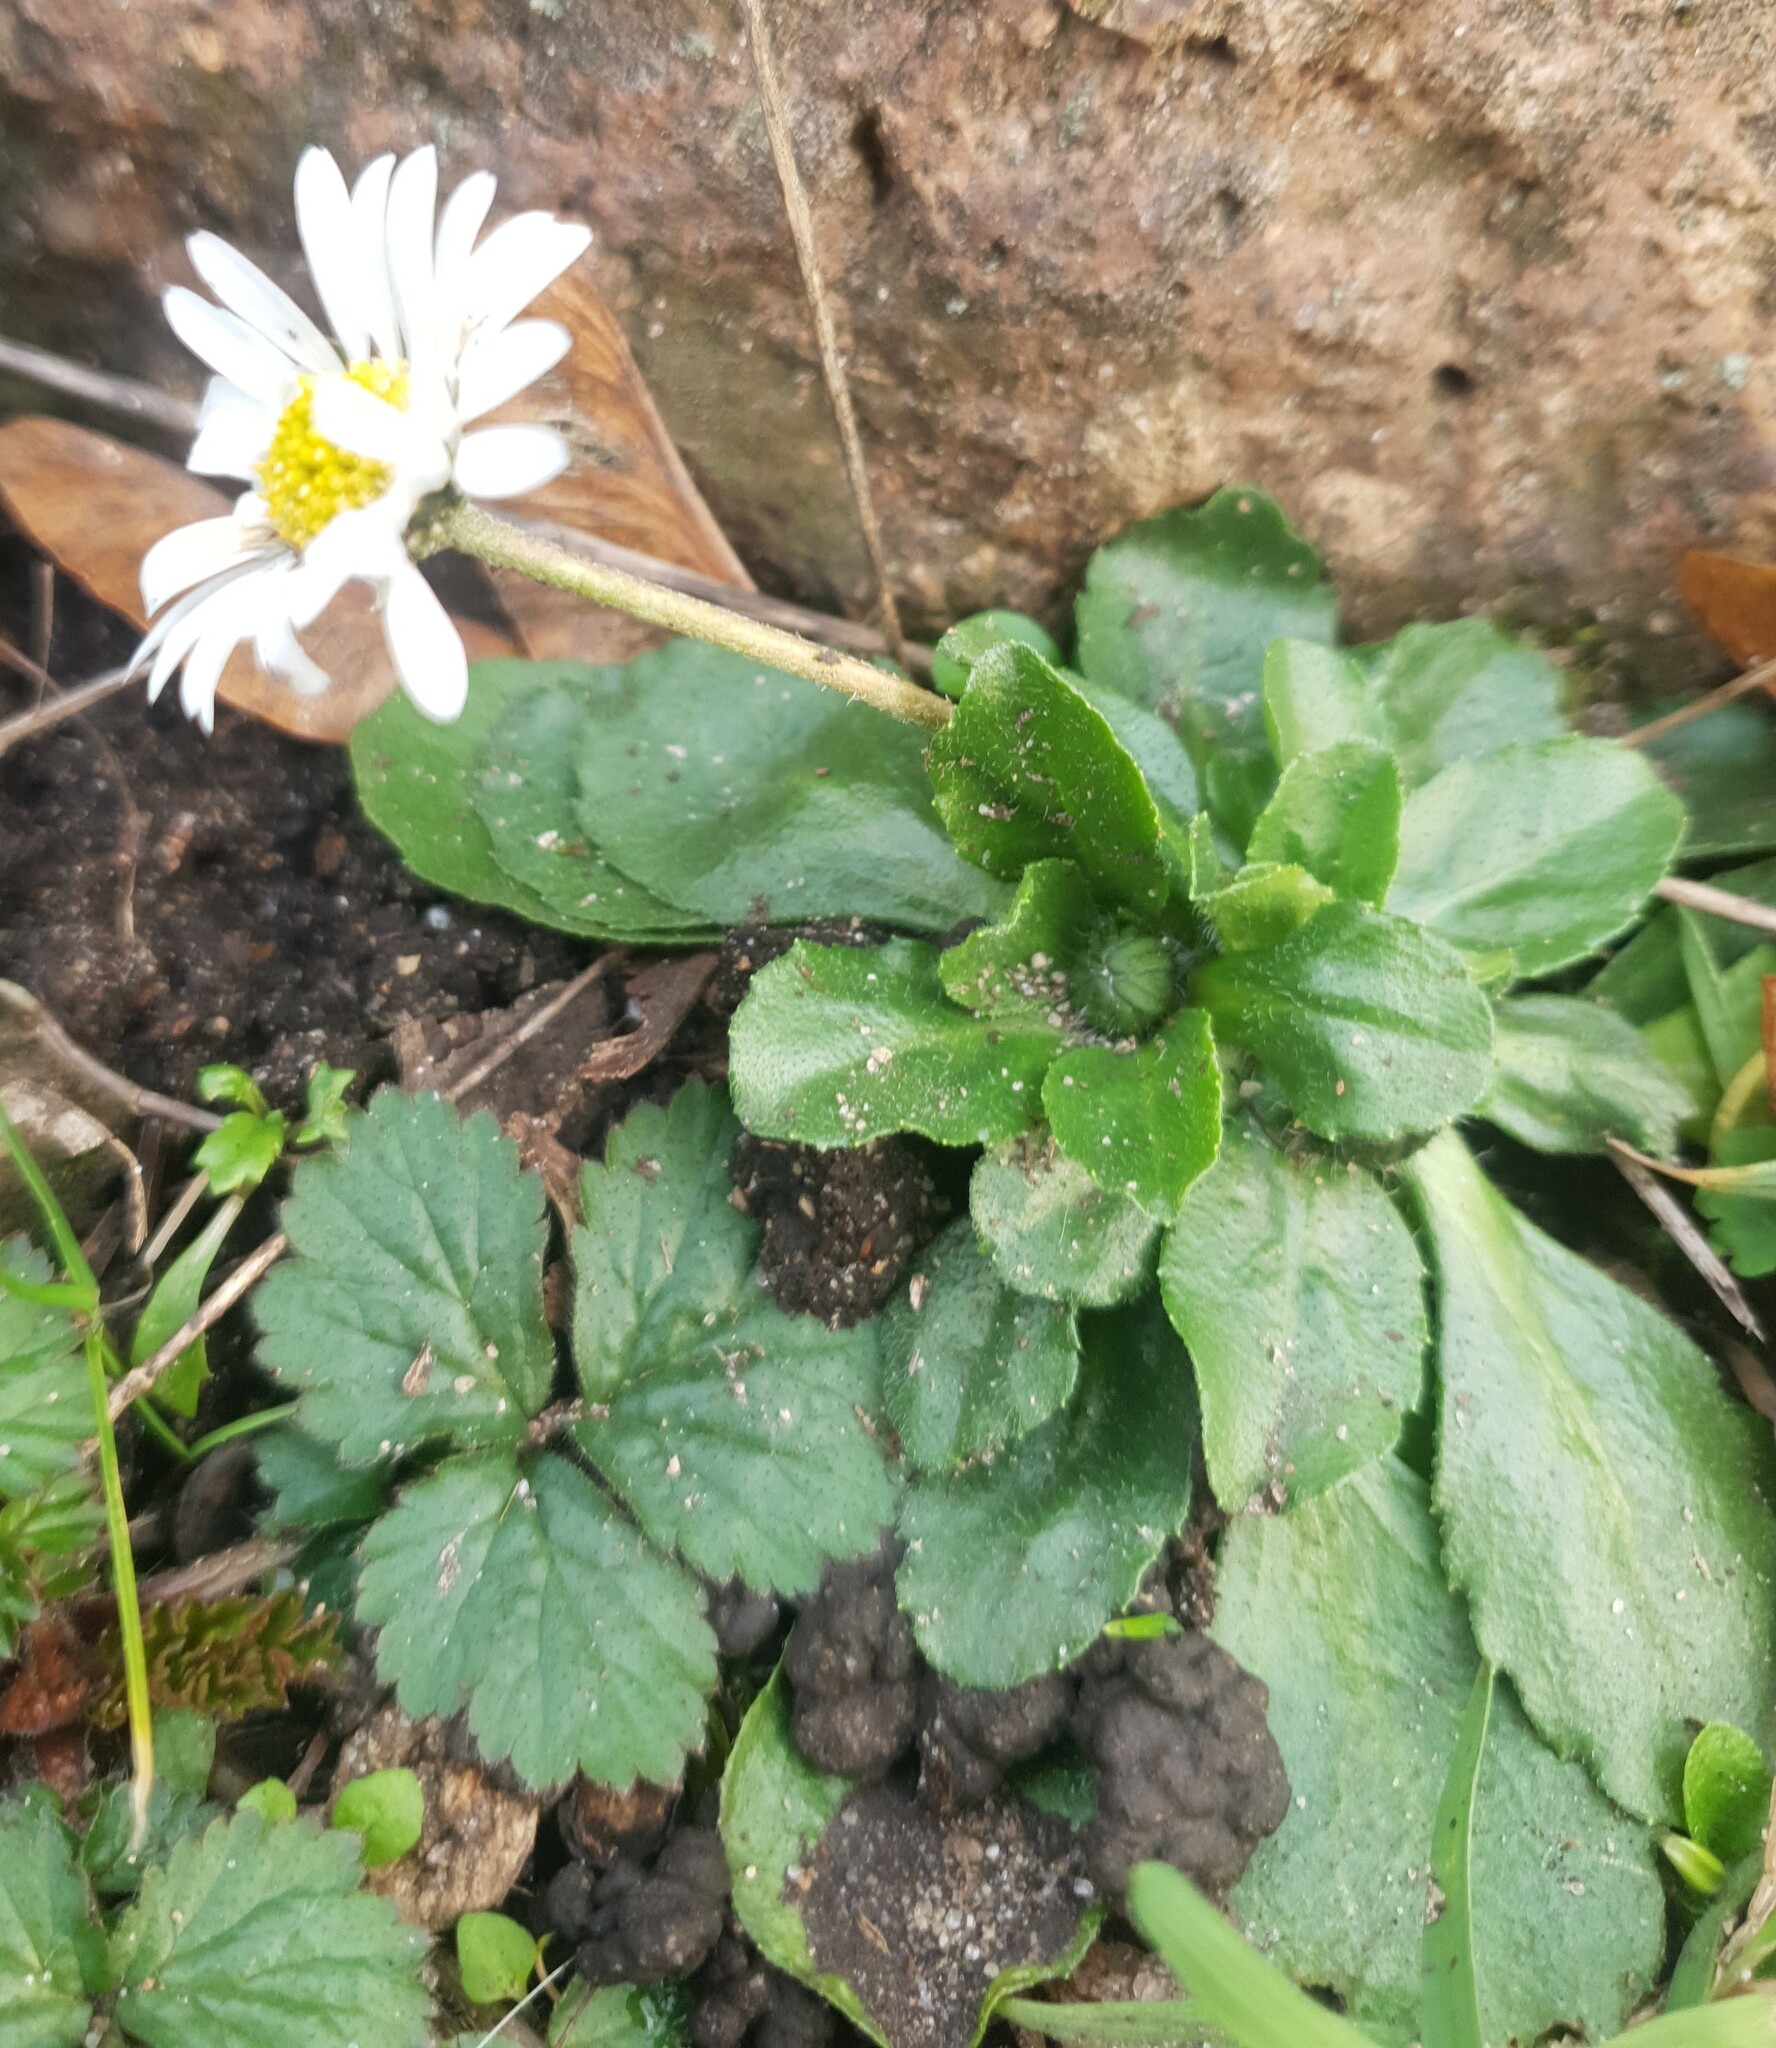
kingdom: Plantae
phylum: Tracheophyta
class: Magnoliopsida
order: Asterales
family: Asteraceae
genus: Bellis
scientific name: Bellis perennis
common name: Lawndaisy
